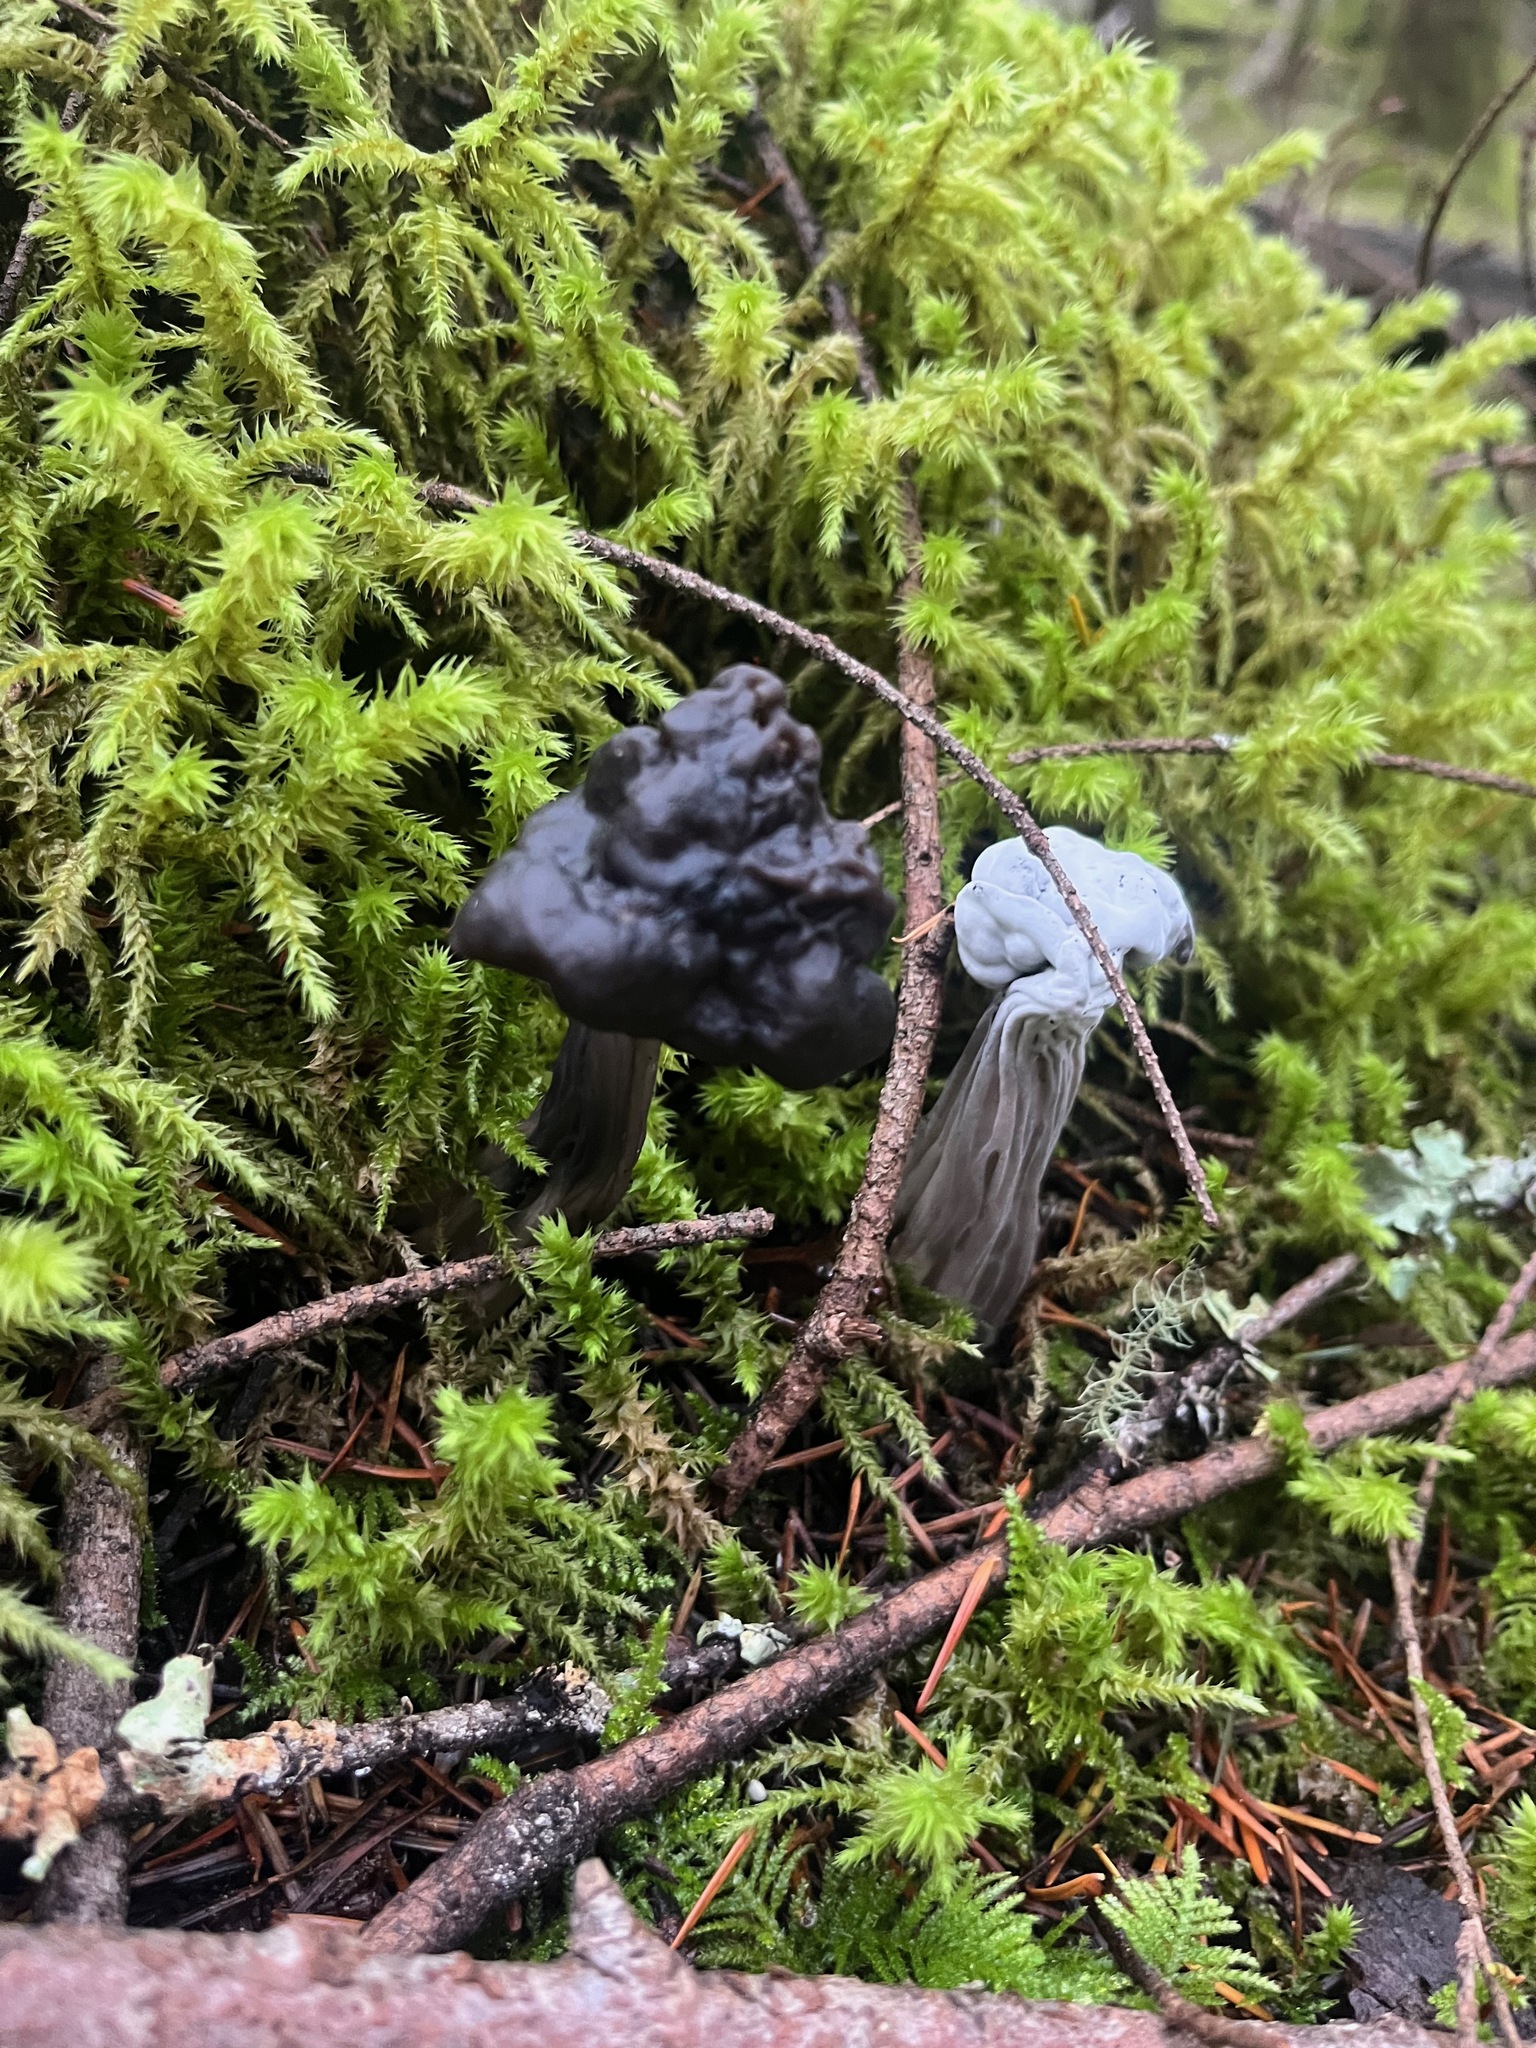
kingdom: Fungi
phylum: Ascomycota
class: Pezizomycetes
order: Pezizales
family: Helvellaceae
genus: Helvella
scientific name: Helvella vespertina
